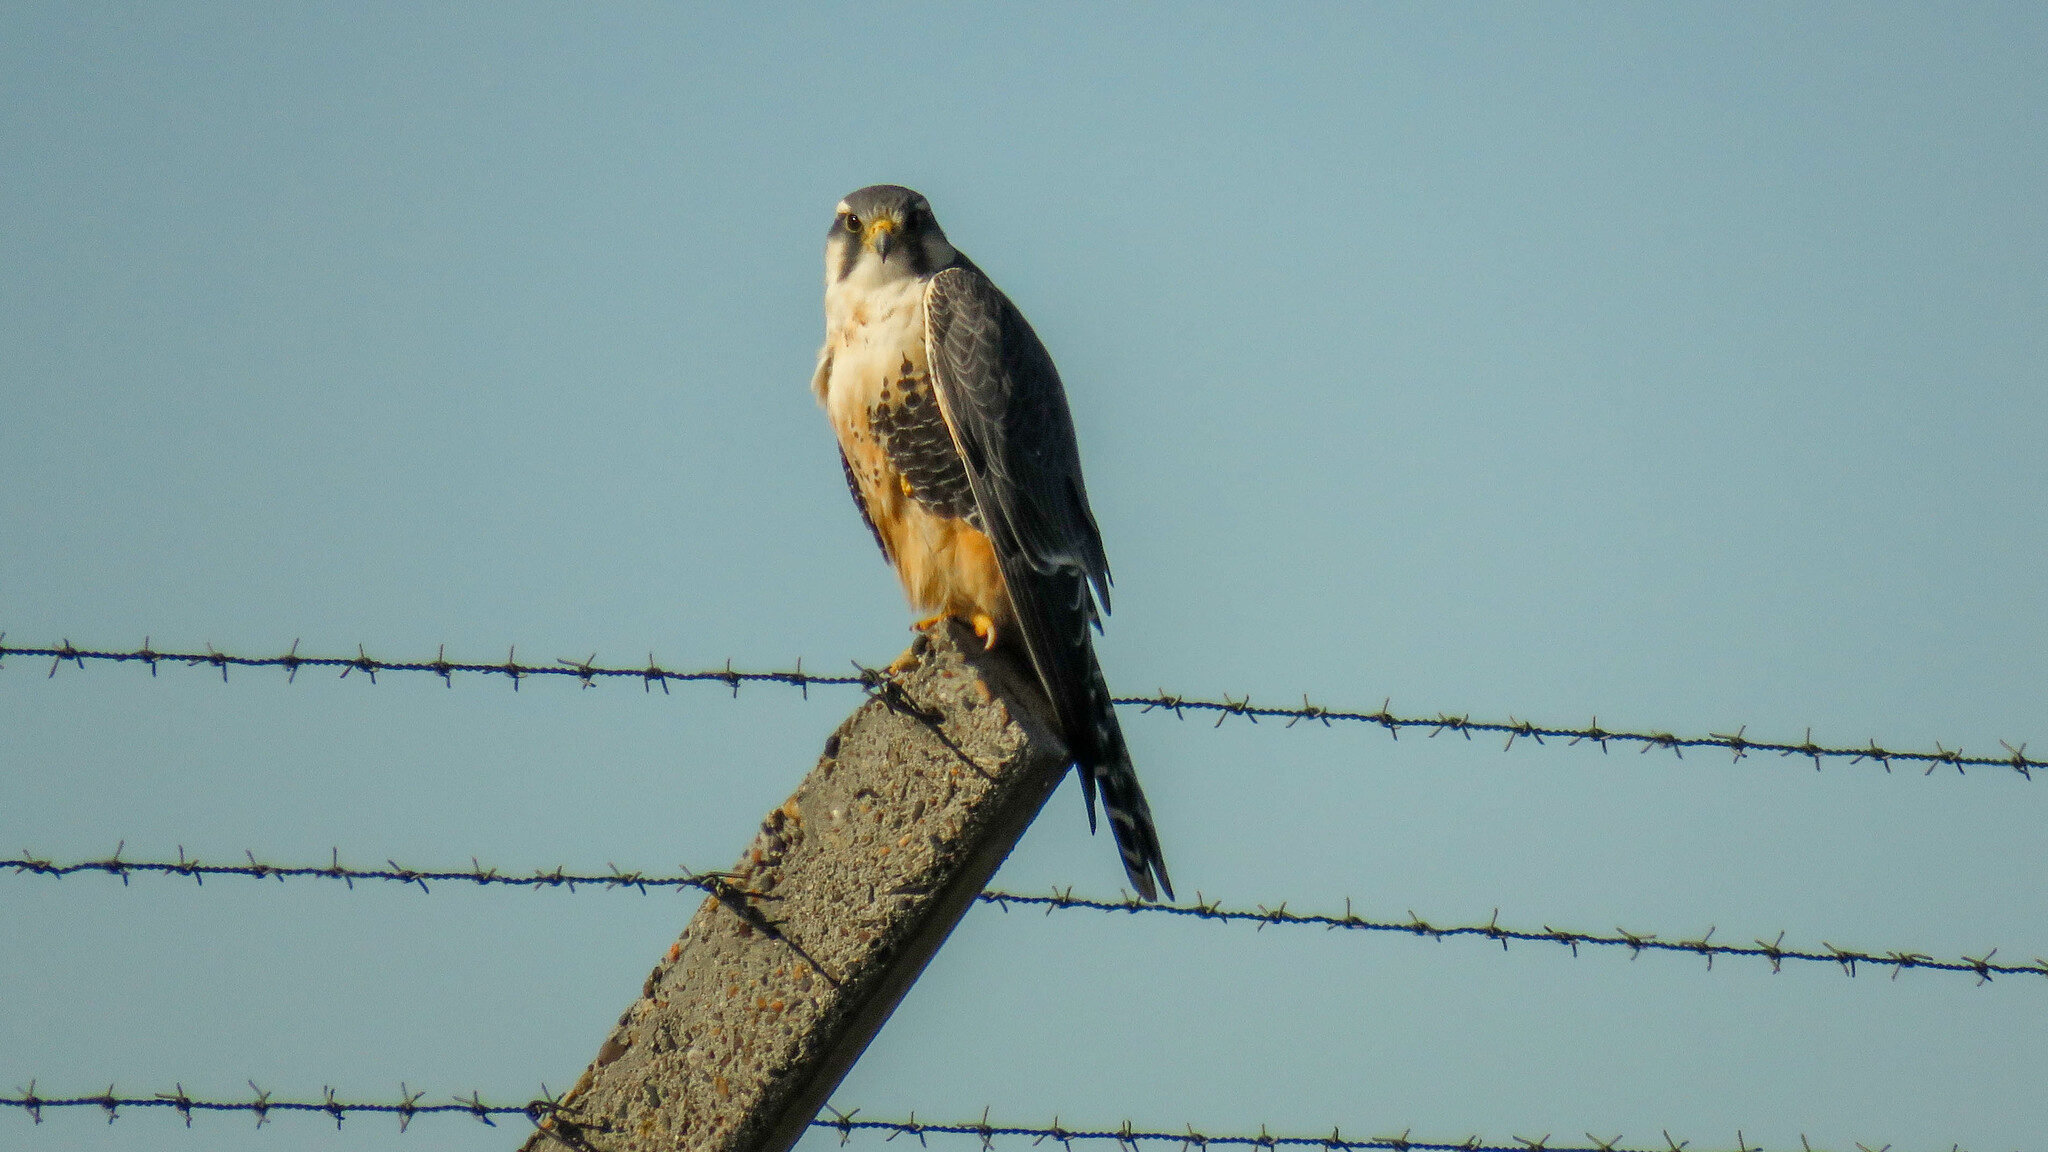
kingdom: Animalia
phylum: Chordata
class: Aves
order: Falconiformes
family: Falconidae
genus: Falco
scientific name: Falco femoralis
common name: Aplomado falcon
